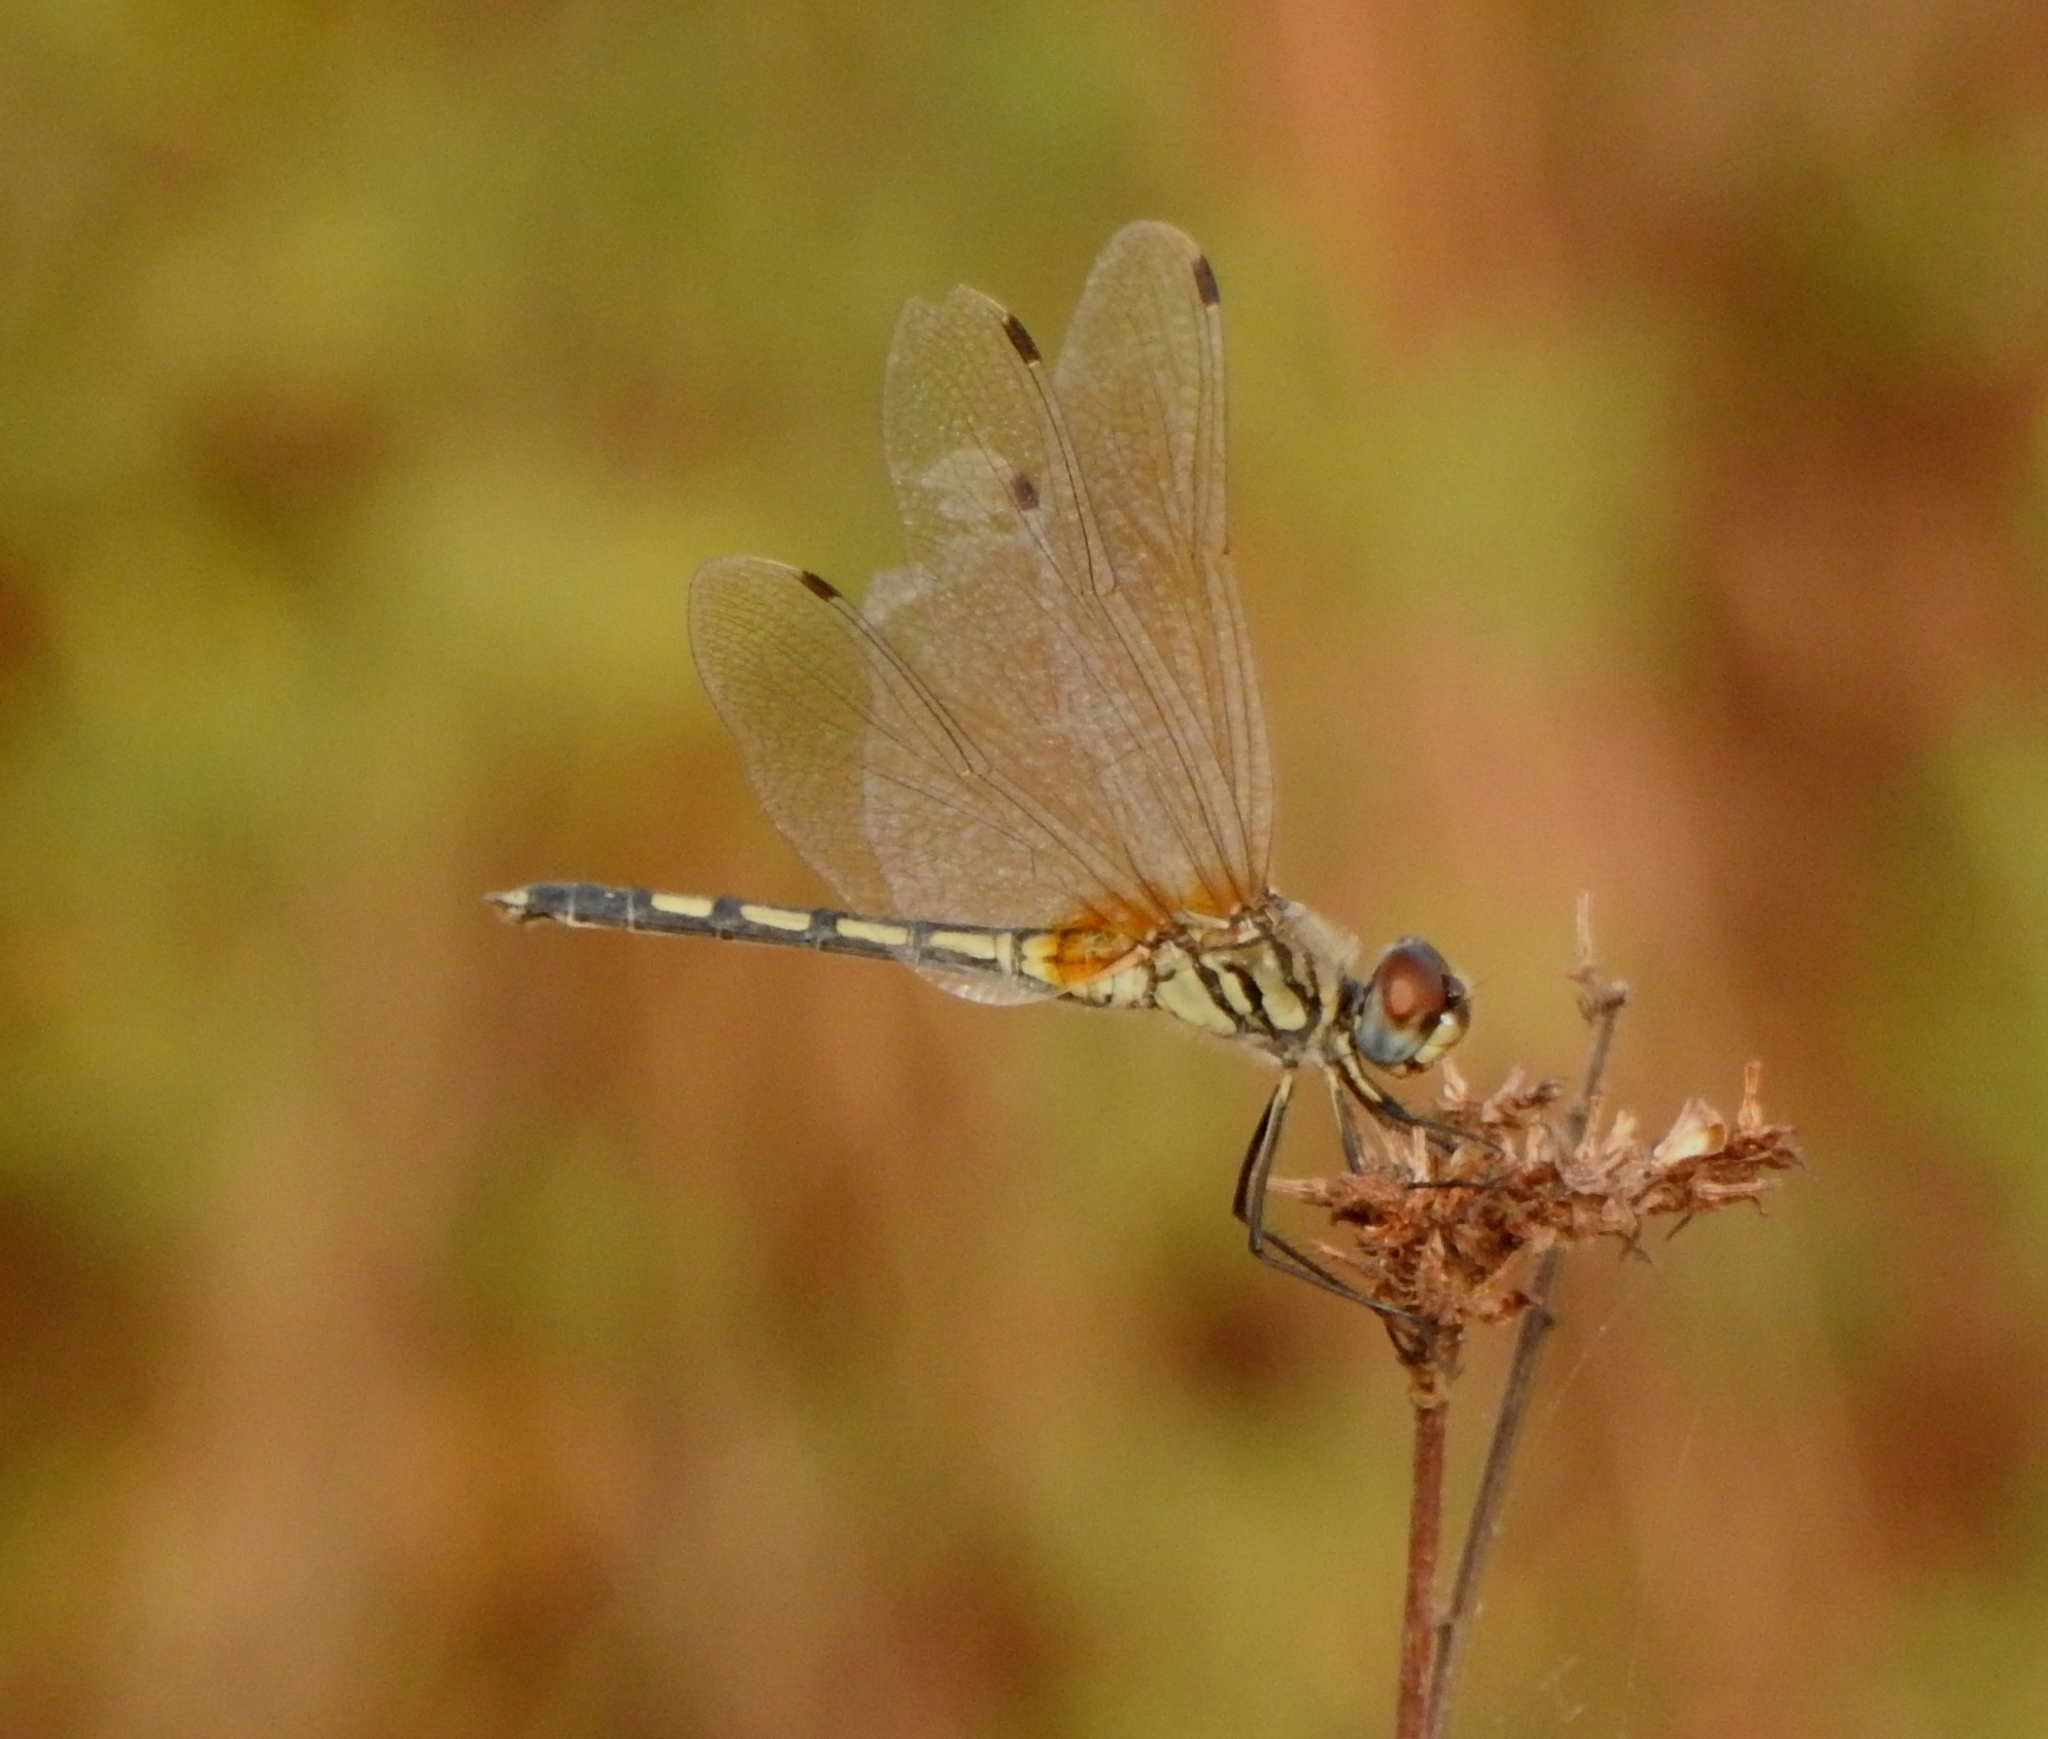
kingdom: Animalia
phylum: Arthropoda
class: Insecta
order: Odonata
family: Libellulidae
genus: Trithemis
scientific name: Trithemis pallidinervis
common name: Dancing dropwing
